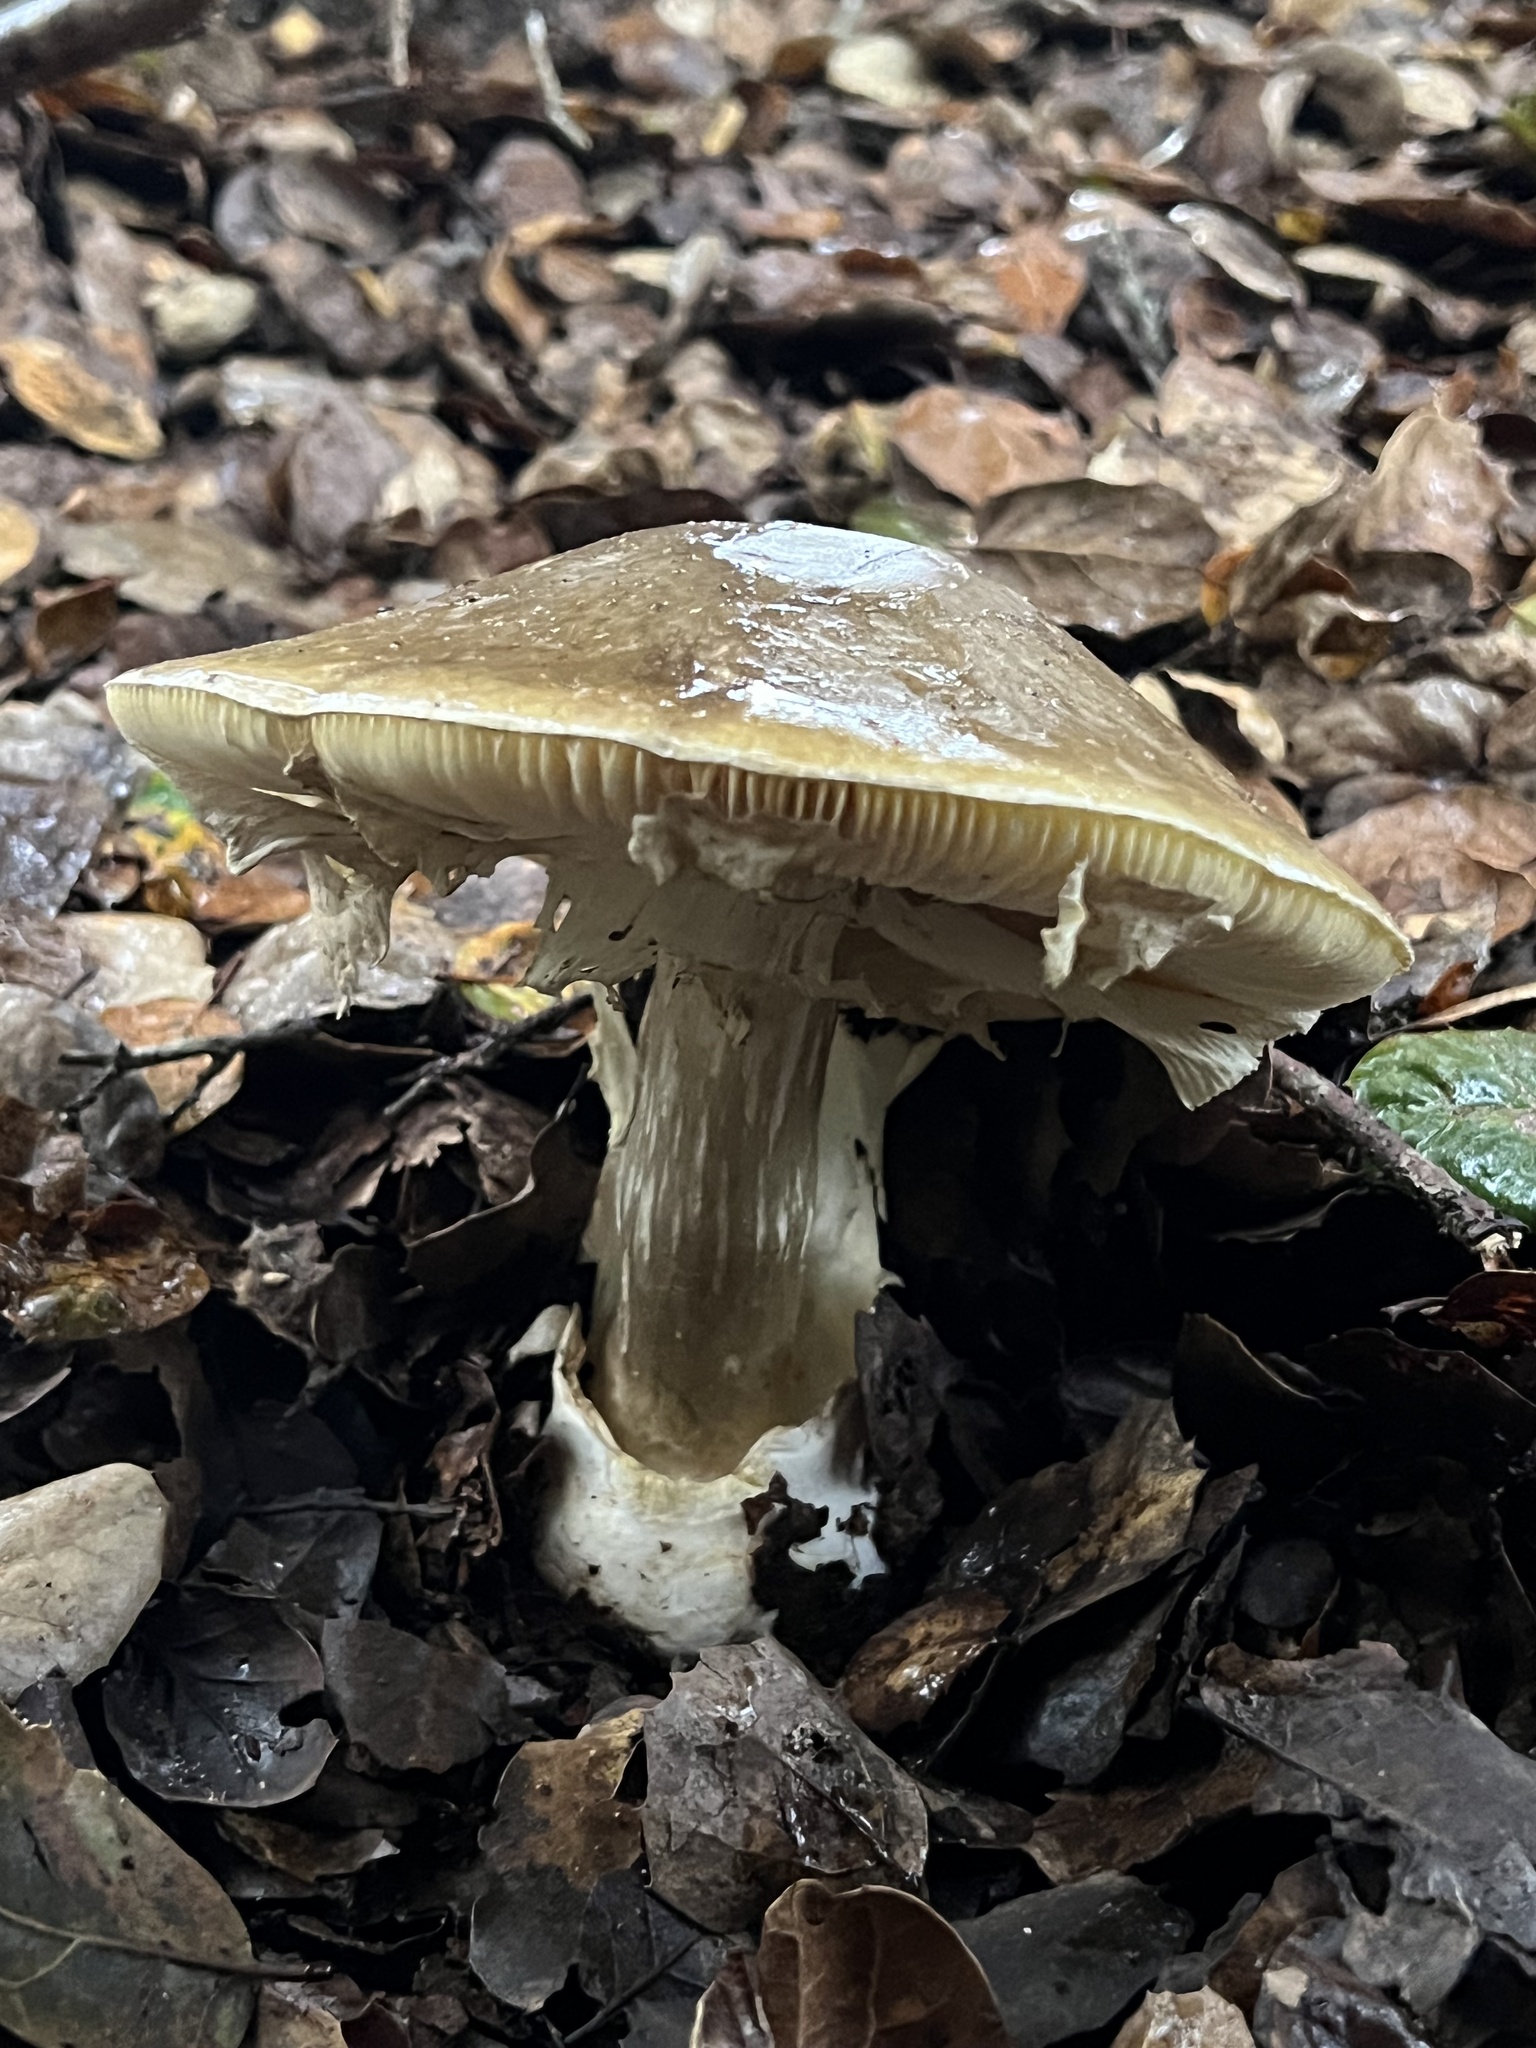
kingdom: Fungi
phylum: Basidiomycota
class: Agaricomycetes
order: Agaricales
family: Amanitaceae
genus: Amanita
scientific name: Amanita phalloides
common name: Death cap
